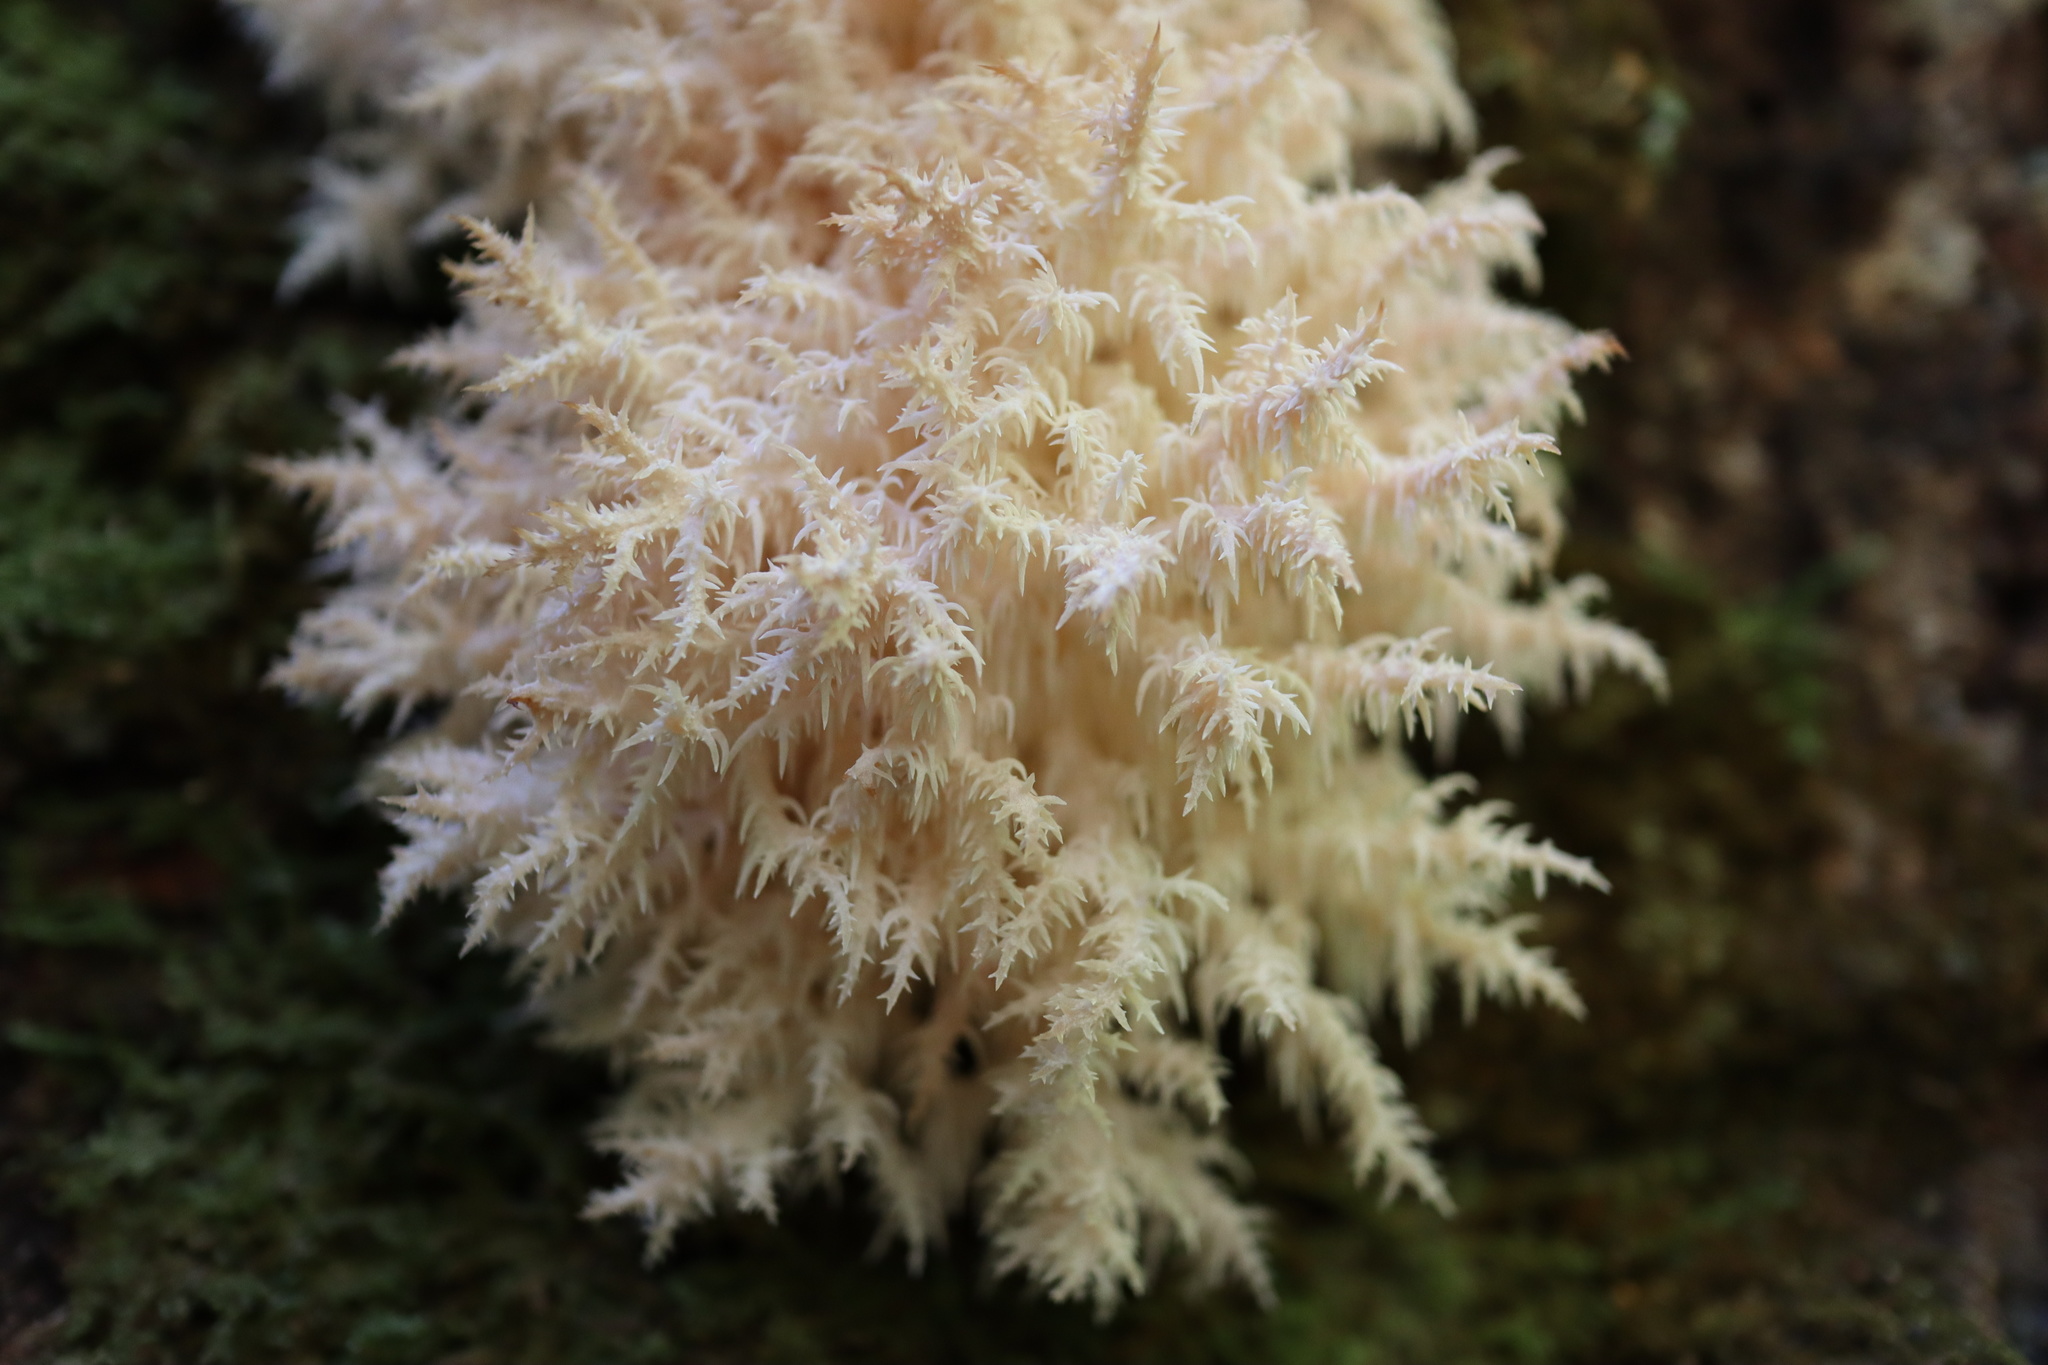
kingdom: Fungi
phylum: Basidiomycota
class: Agaricomycetes
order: Russulales
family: Hericiaceae
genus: Hericium
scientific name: Hericium novae-zealandiae
